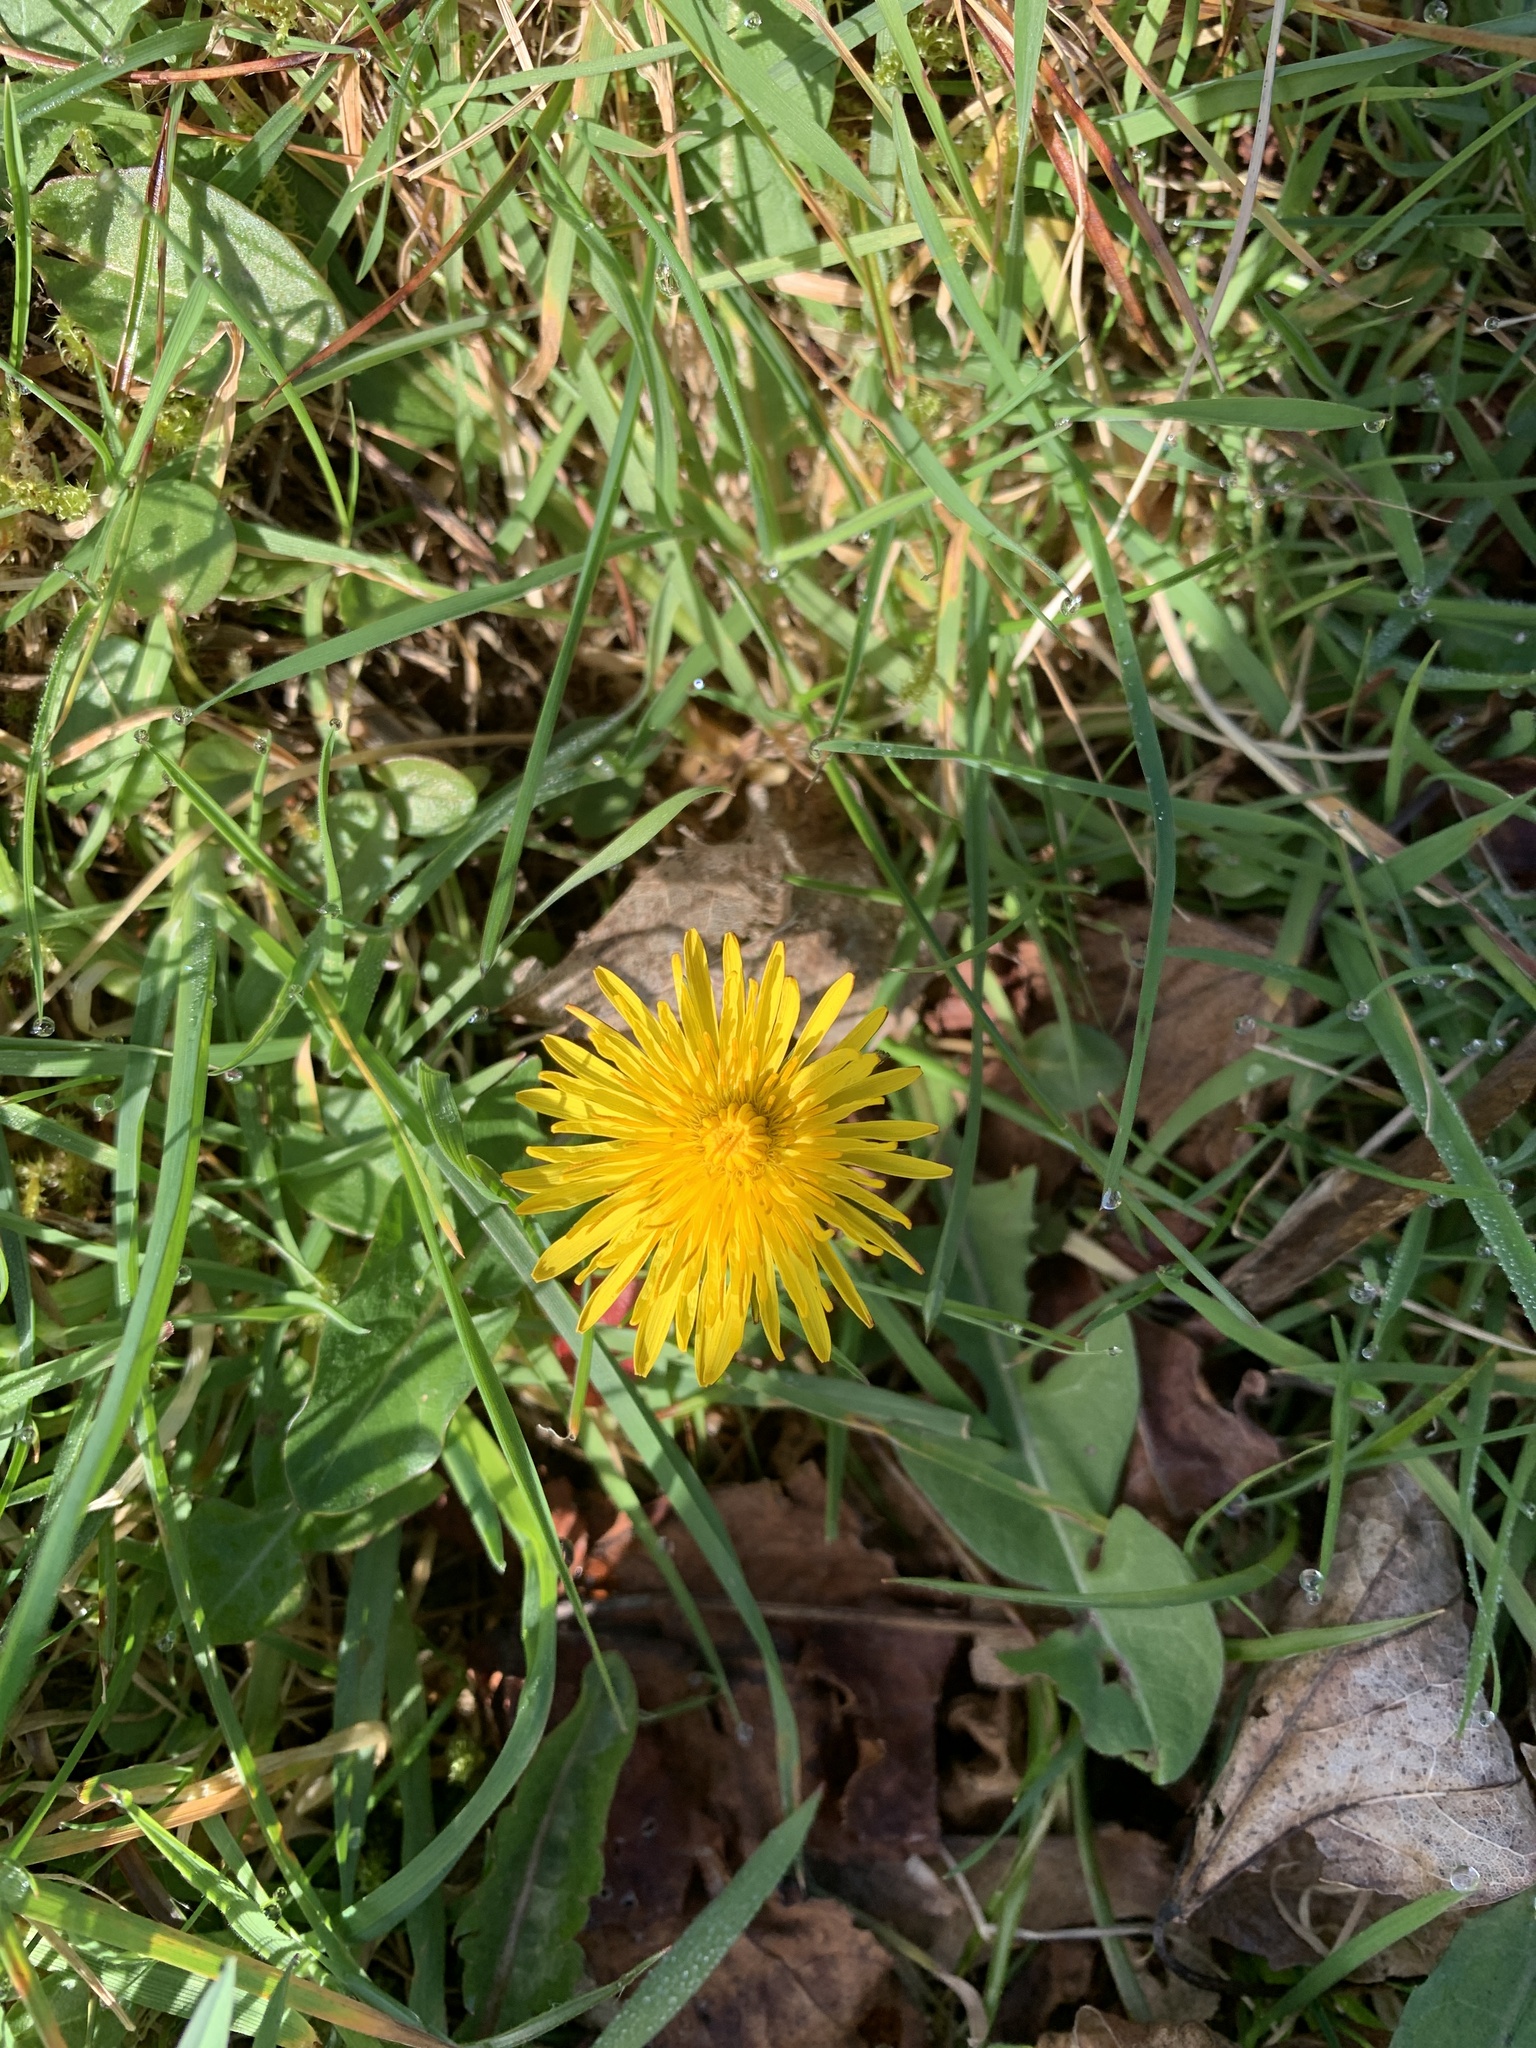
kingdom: Plantae
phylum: Tracheophyta
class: Magnoliopsida
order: Asterales
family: Asteraceae
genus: Taraxacum
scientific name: Taraxacum officinale
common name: Common dandelion
